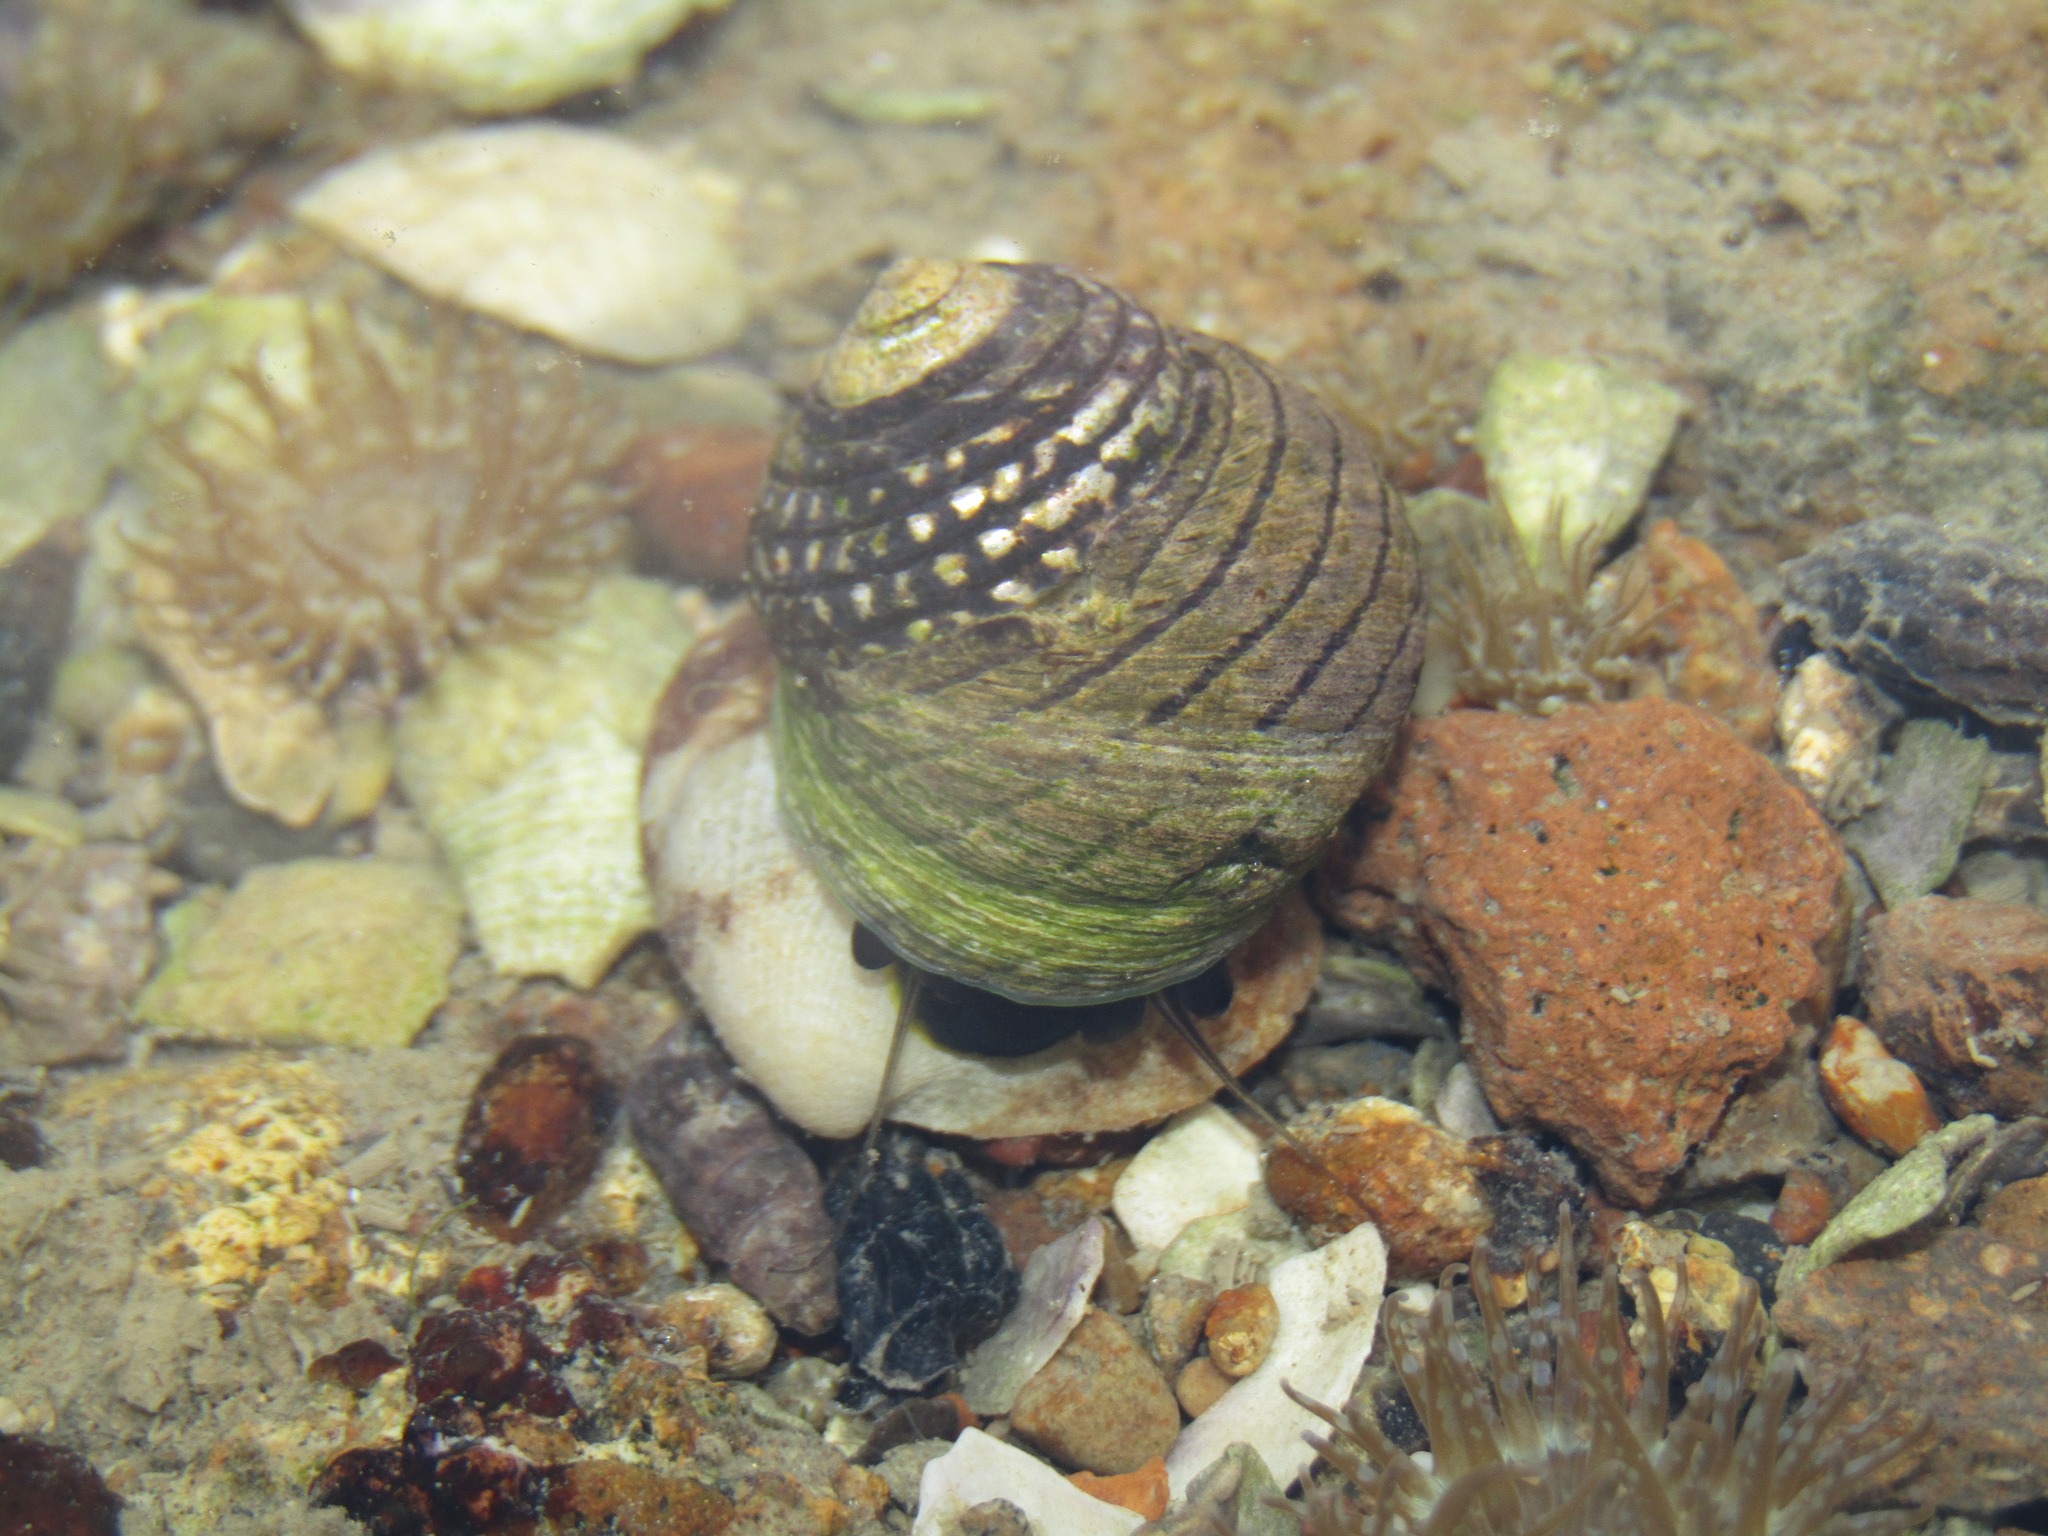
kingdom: Animalia
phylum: Mollusca
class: Gastropoda
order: Trochida
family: Trochidae
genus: Diloma
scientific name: Diloma aethiops
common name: Scorched monodont
